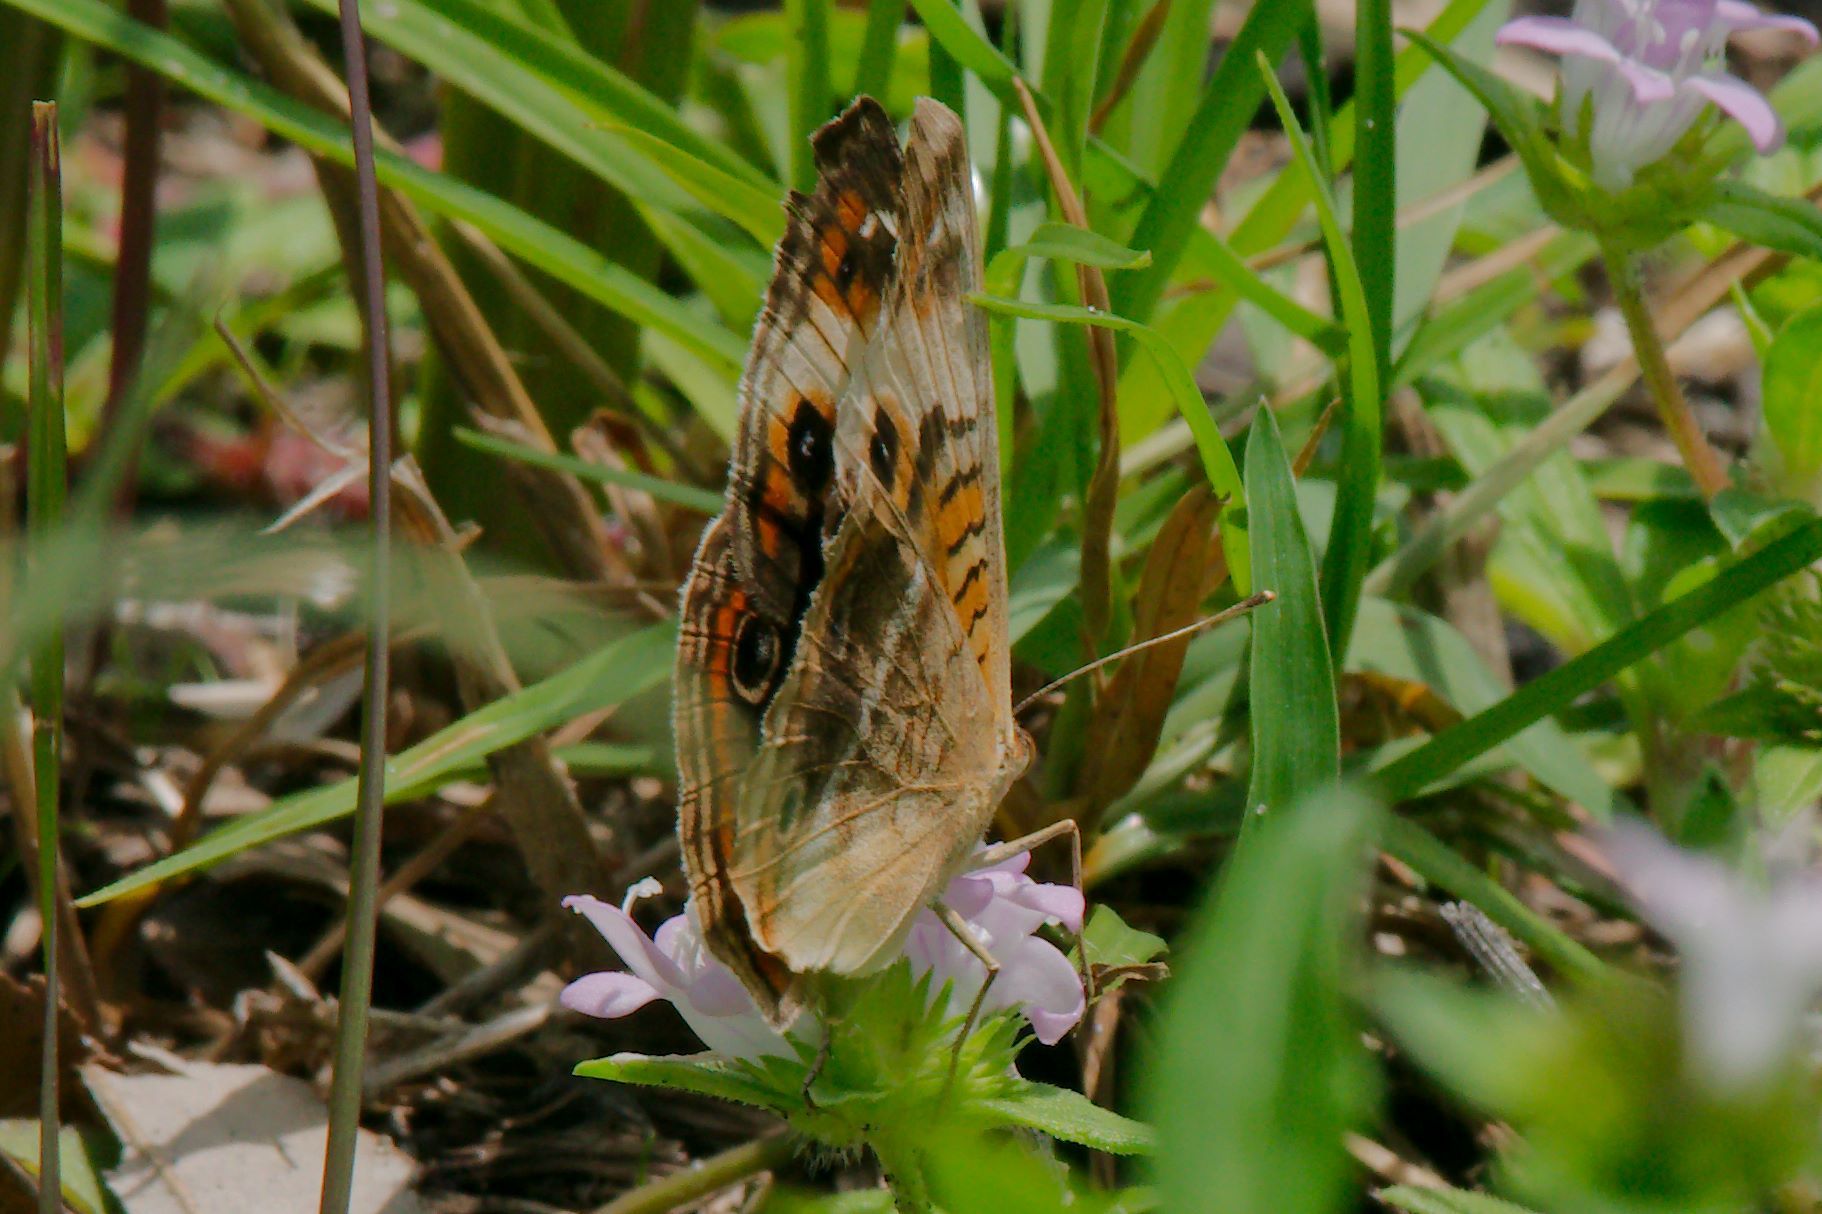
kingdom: Animalia
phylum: Arthropoda
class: Insecta
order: Lepidoptera
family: Nymphalidae
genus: Junonia
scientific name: Junonia lavinia
